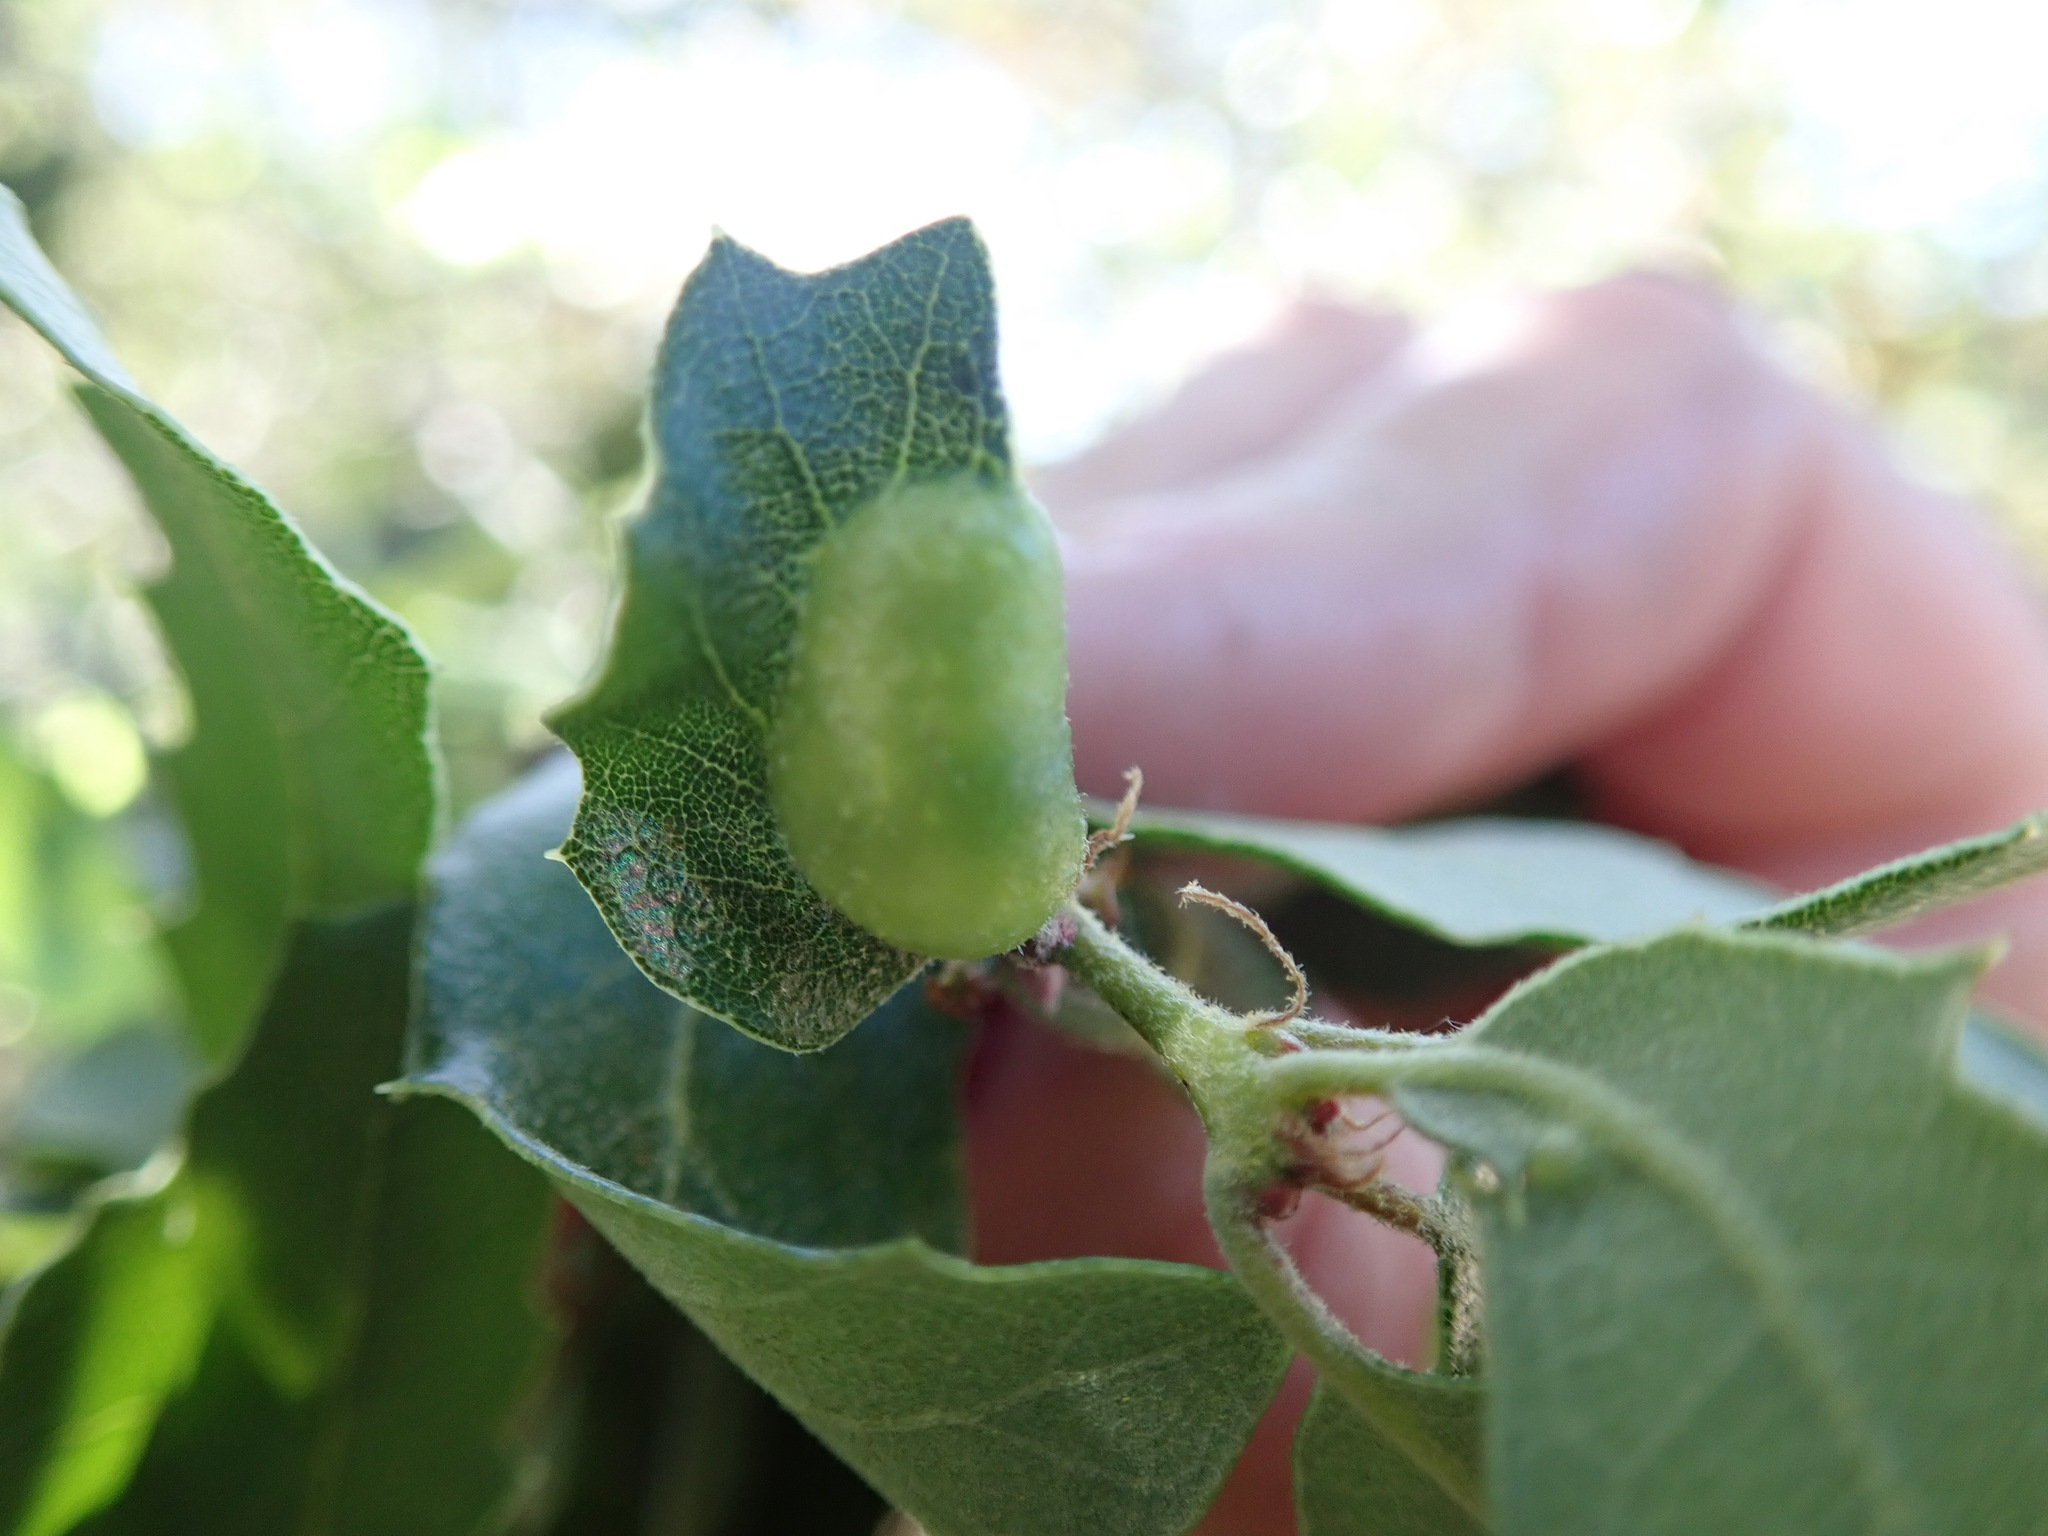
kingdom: Animalia
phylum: Arthropoda
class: Insecta
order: Hymenoptera
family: Cynipidae
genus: Neuroterus
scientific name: Neuroterus
